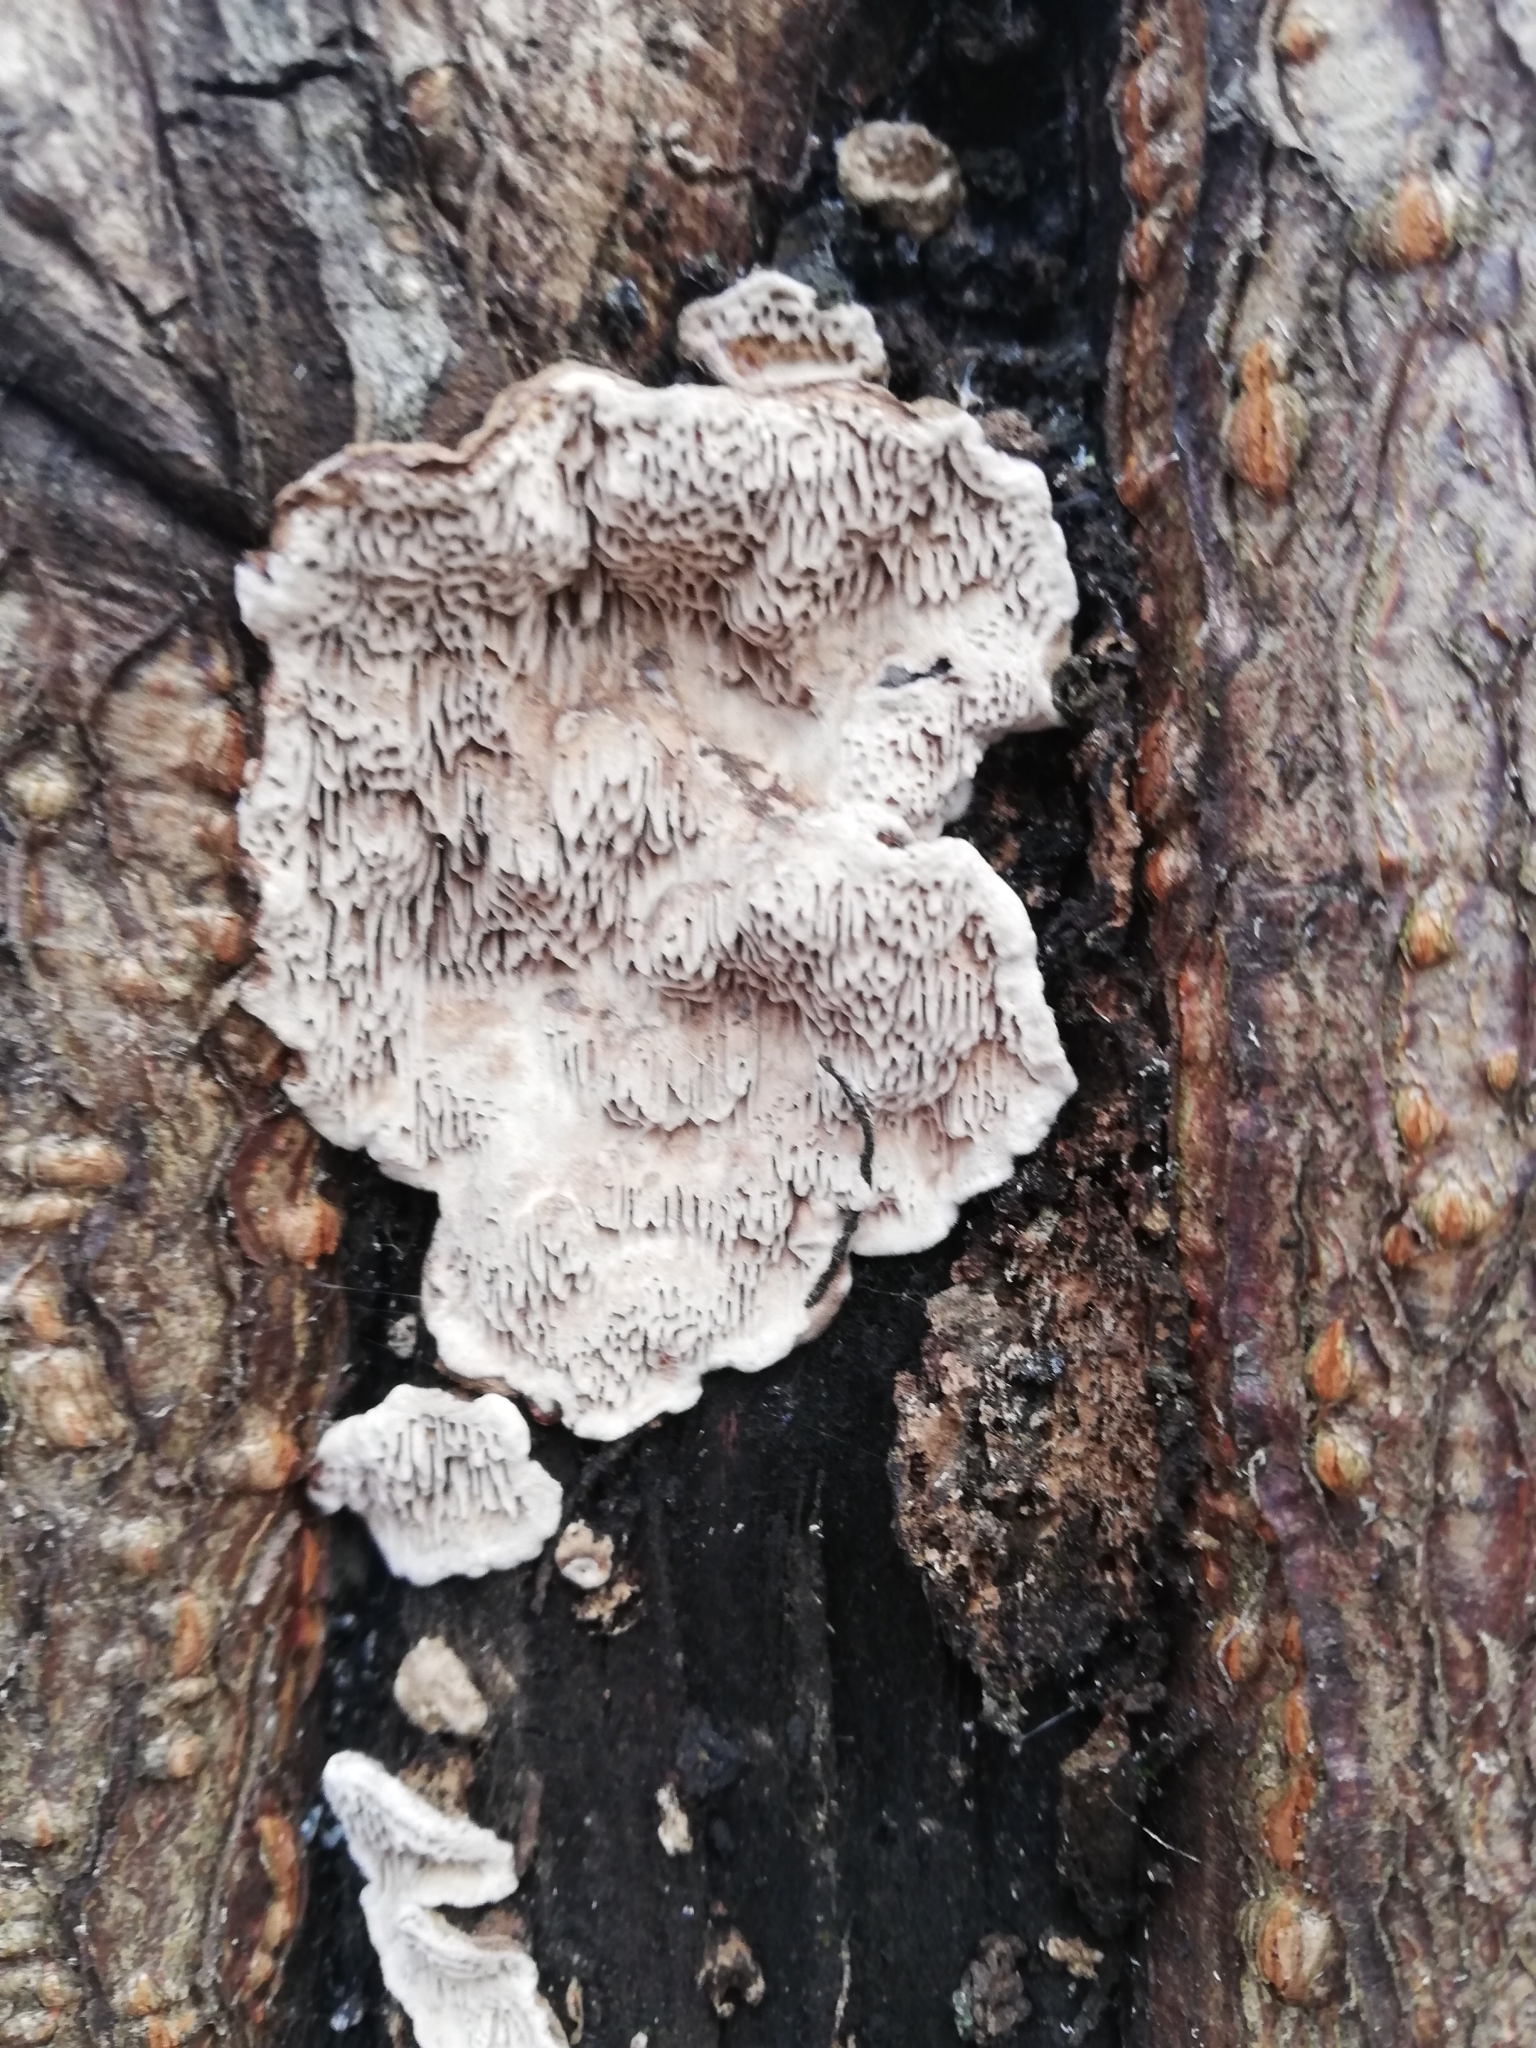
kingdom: Fungi
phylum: Basidiomycota
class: Agaricomycetes
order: Polyporales
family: Polyporaceae
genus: Podofomes
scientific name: Podofomes mollis
